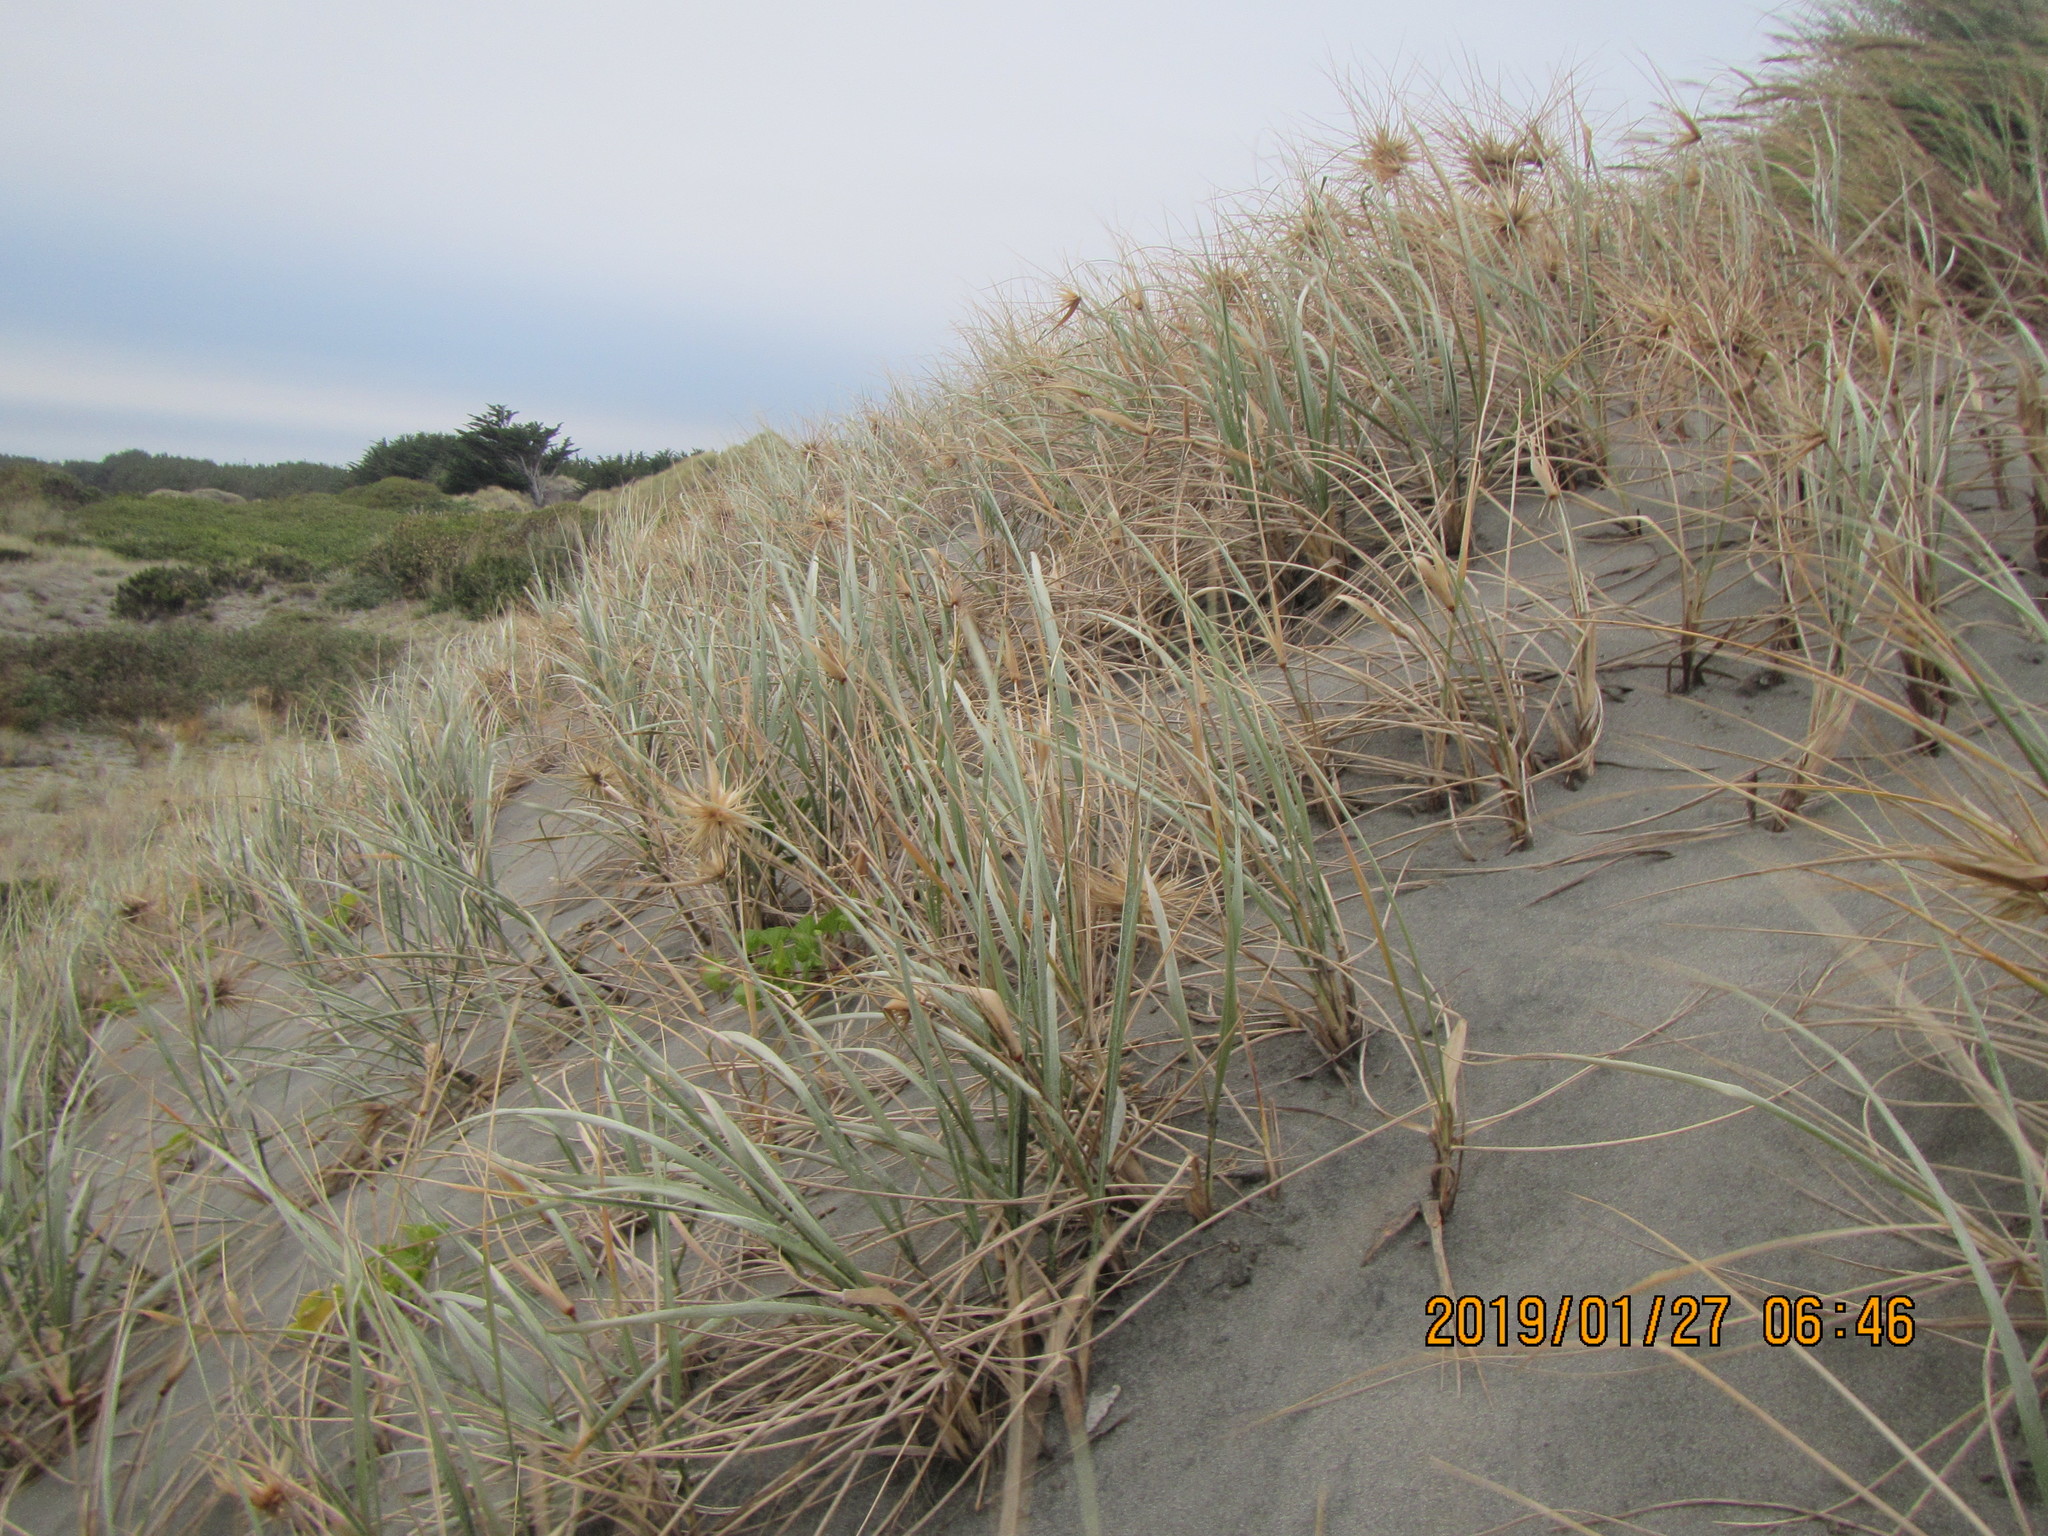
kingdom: Plantae
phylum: Tracheophyta
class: Liliopsida
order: Poales
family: Poaceae
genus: Spinifex
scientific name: Spinifex sericeus
